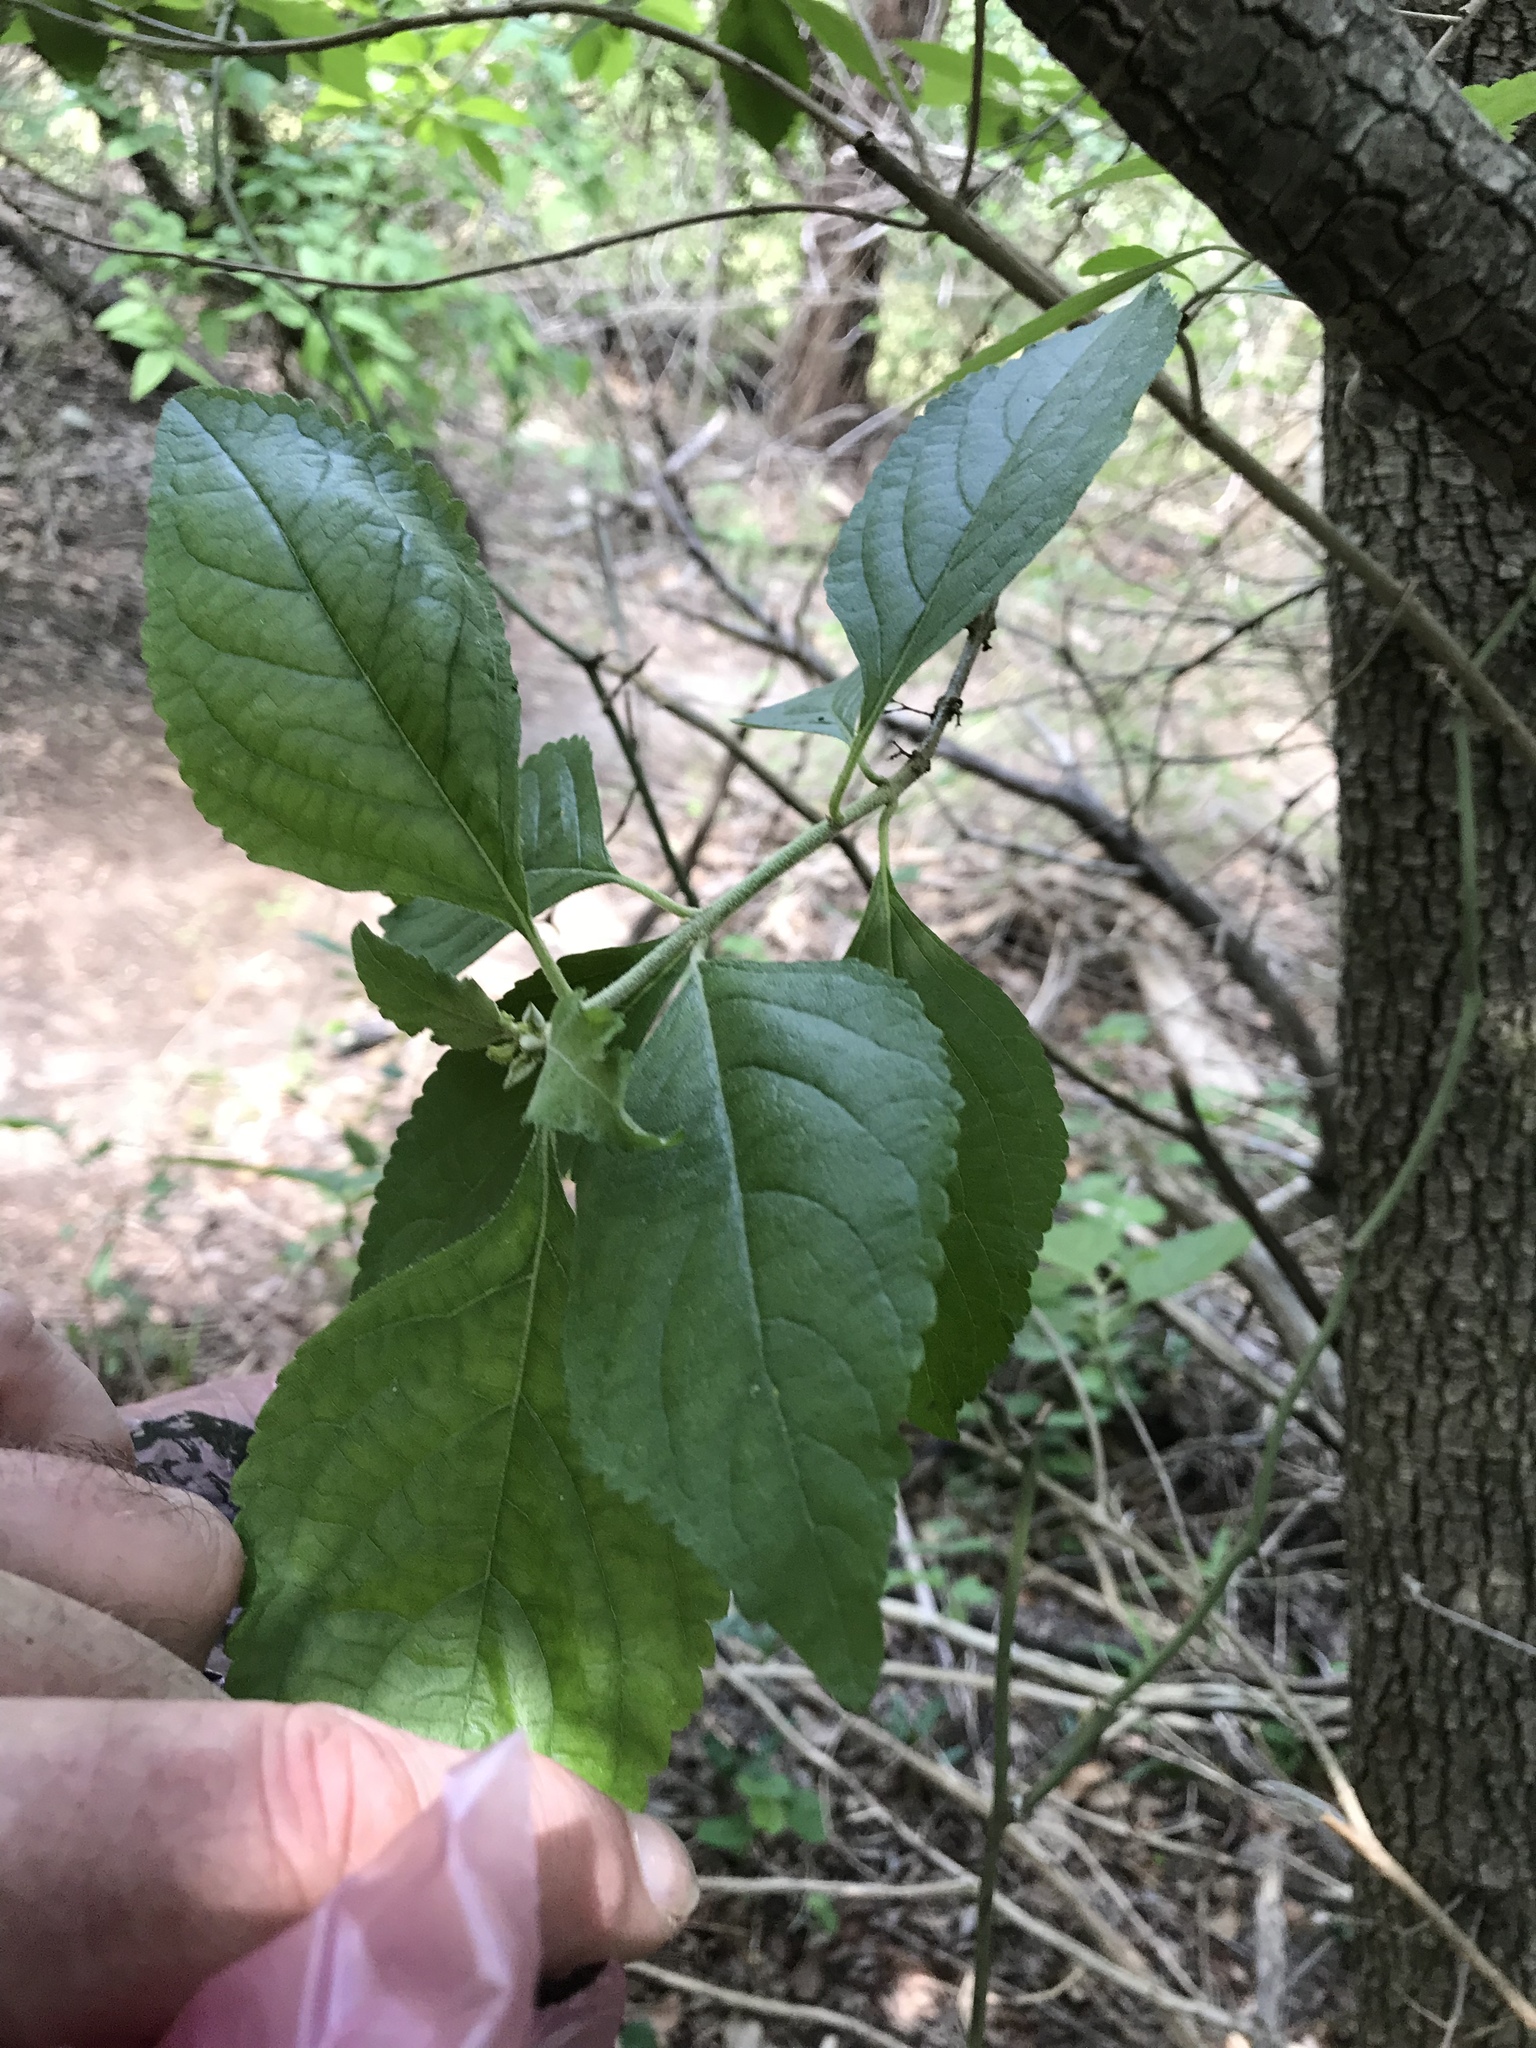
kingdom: Plantae
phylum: Tracheophyta
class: Magnoliopsida
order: Lamiales
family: Lamiaceae
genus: Callicarpa
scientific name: Callicarpa americana
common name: American beautyberry
